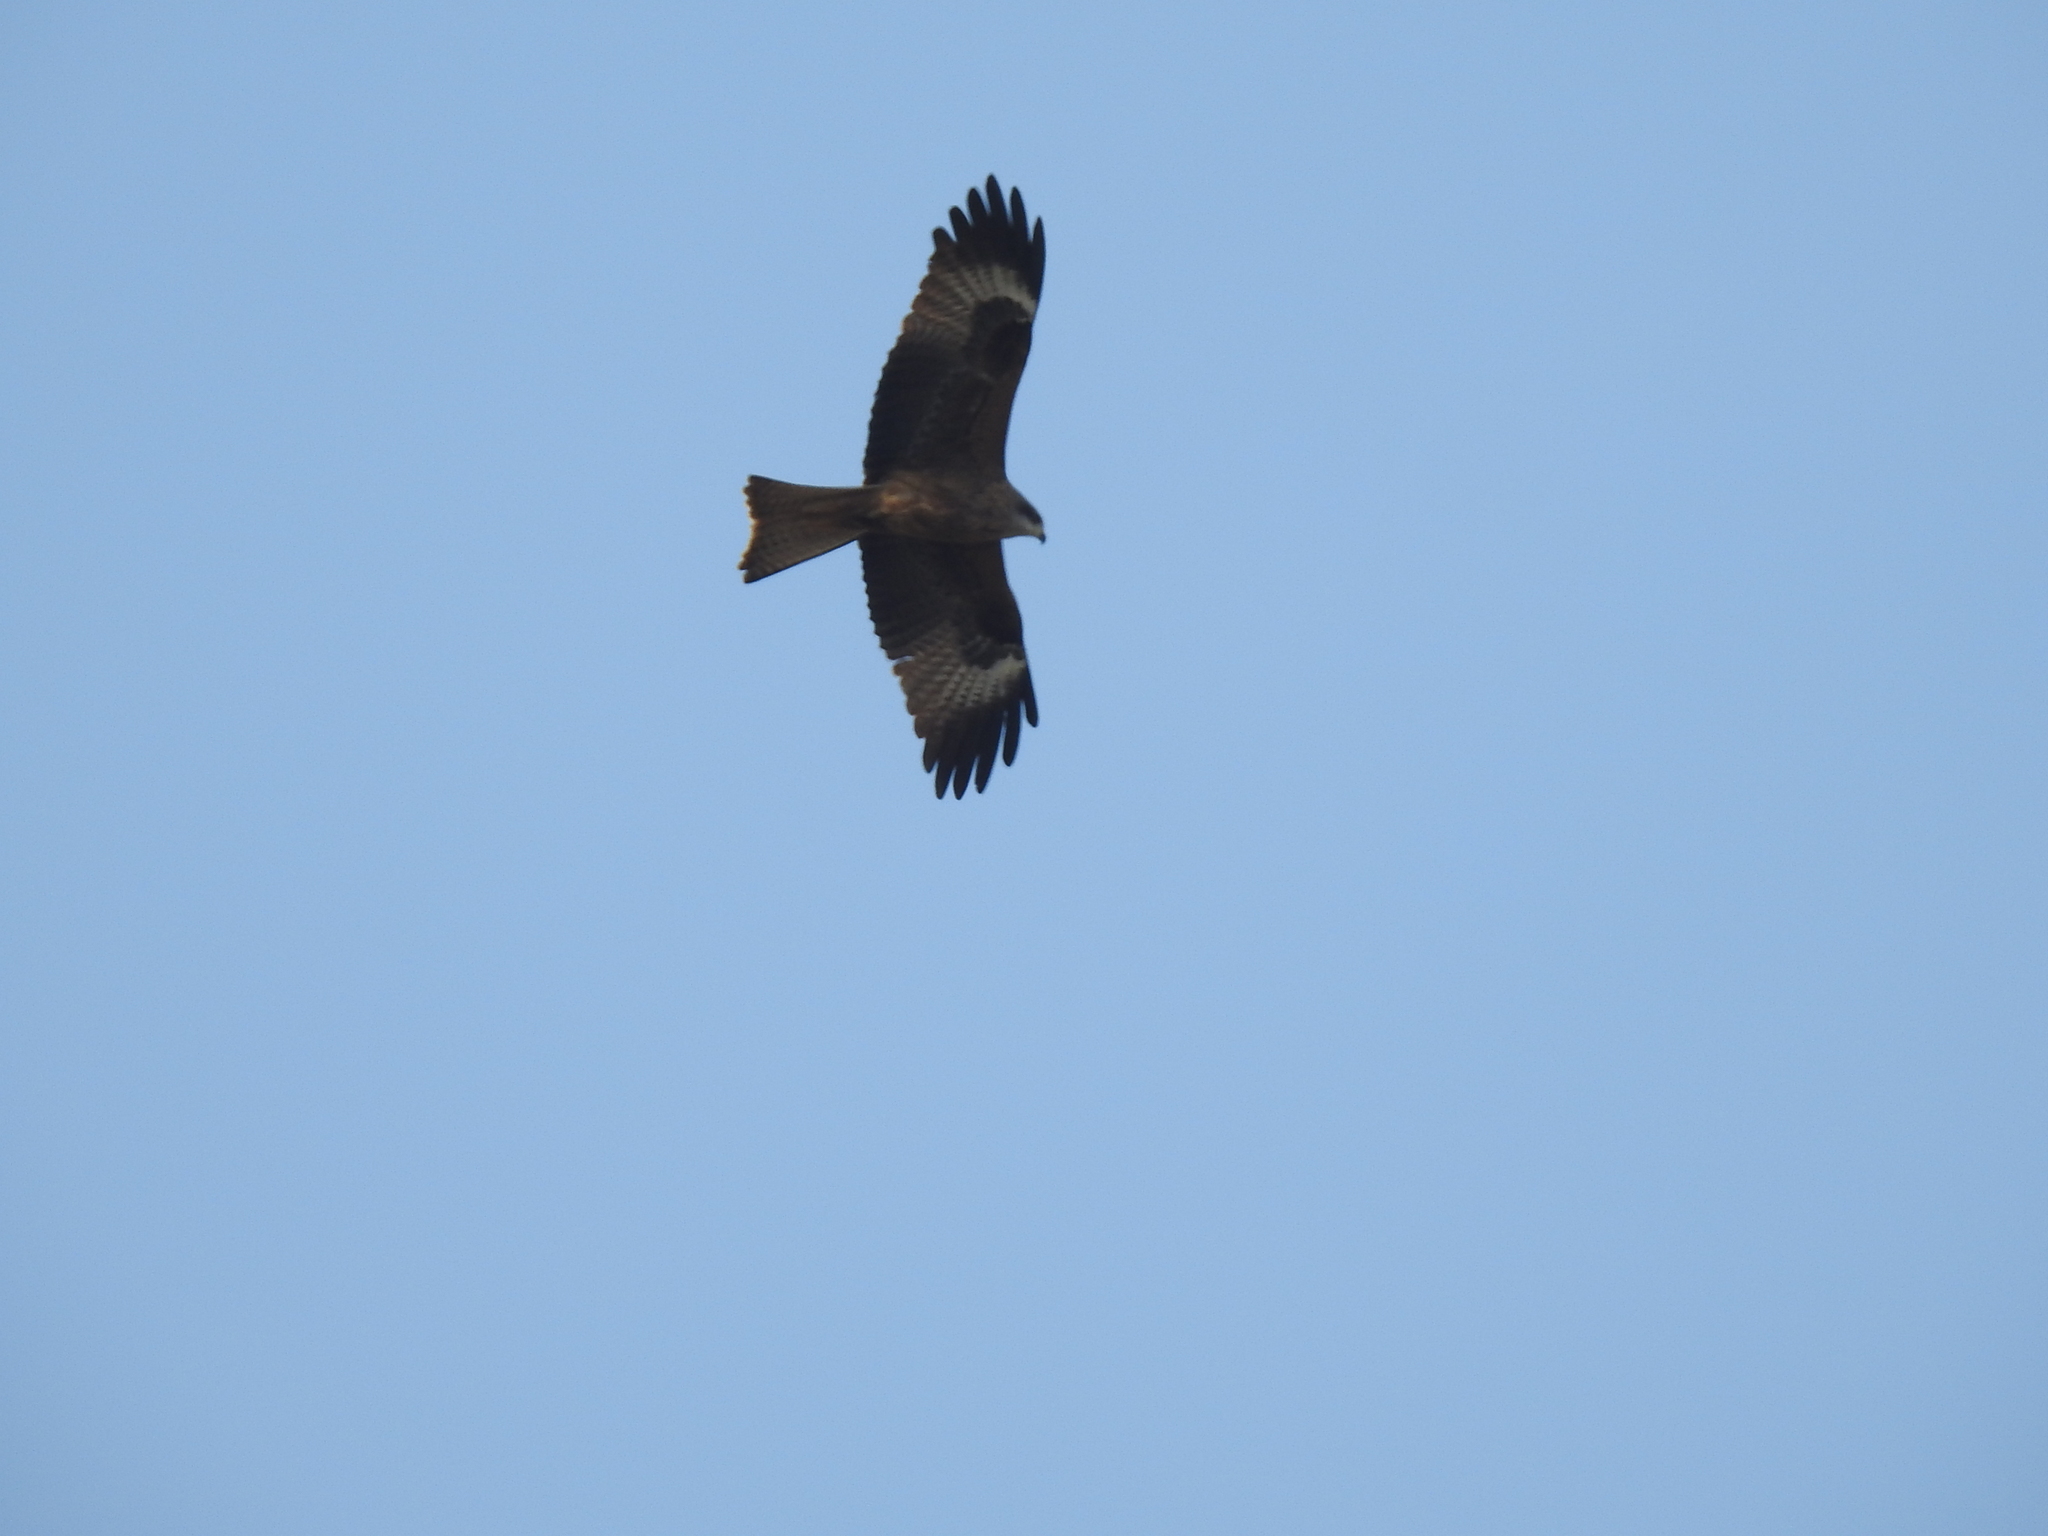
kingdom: Animalia
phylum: Chordata
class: Aves
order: Accipitriformes
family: Accipitridae
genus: Milvus
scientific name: Milvus migrans
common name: Black kite
